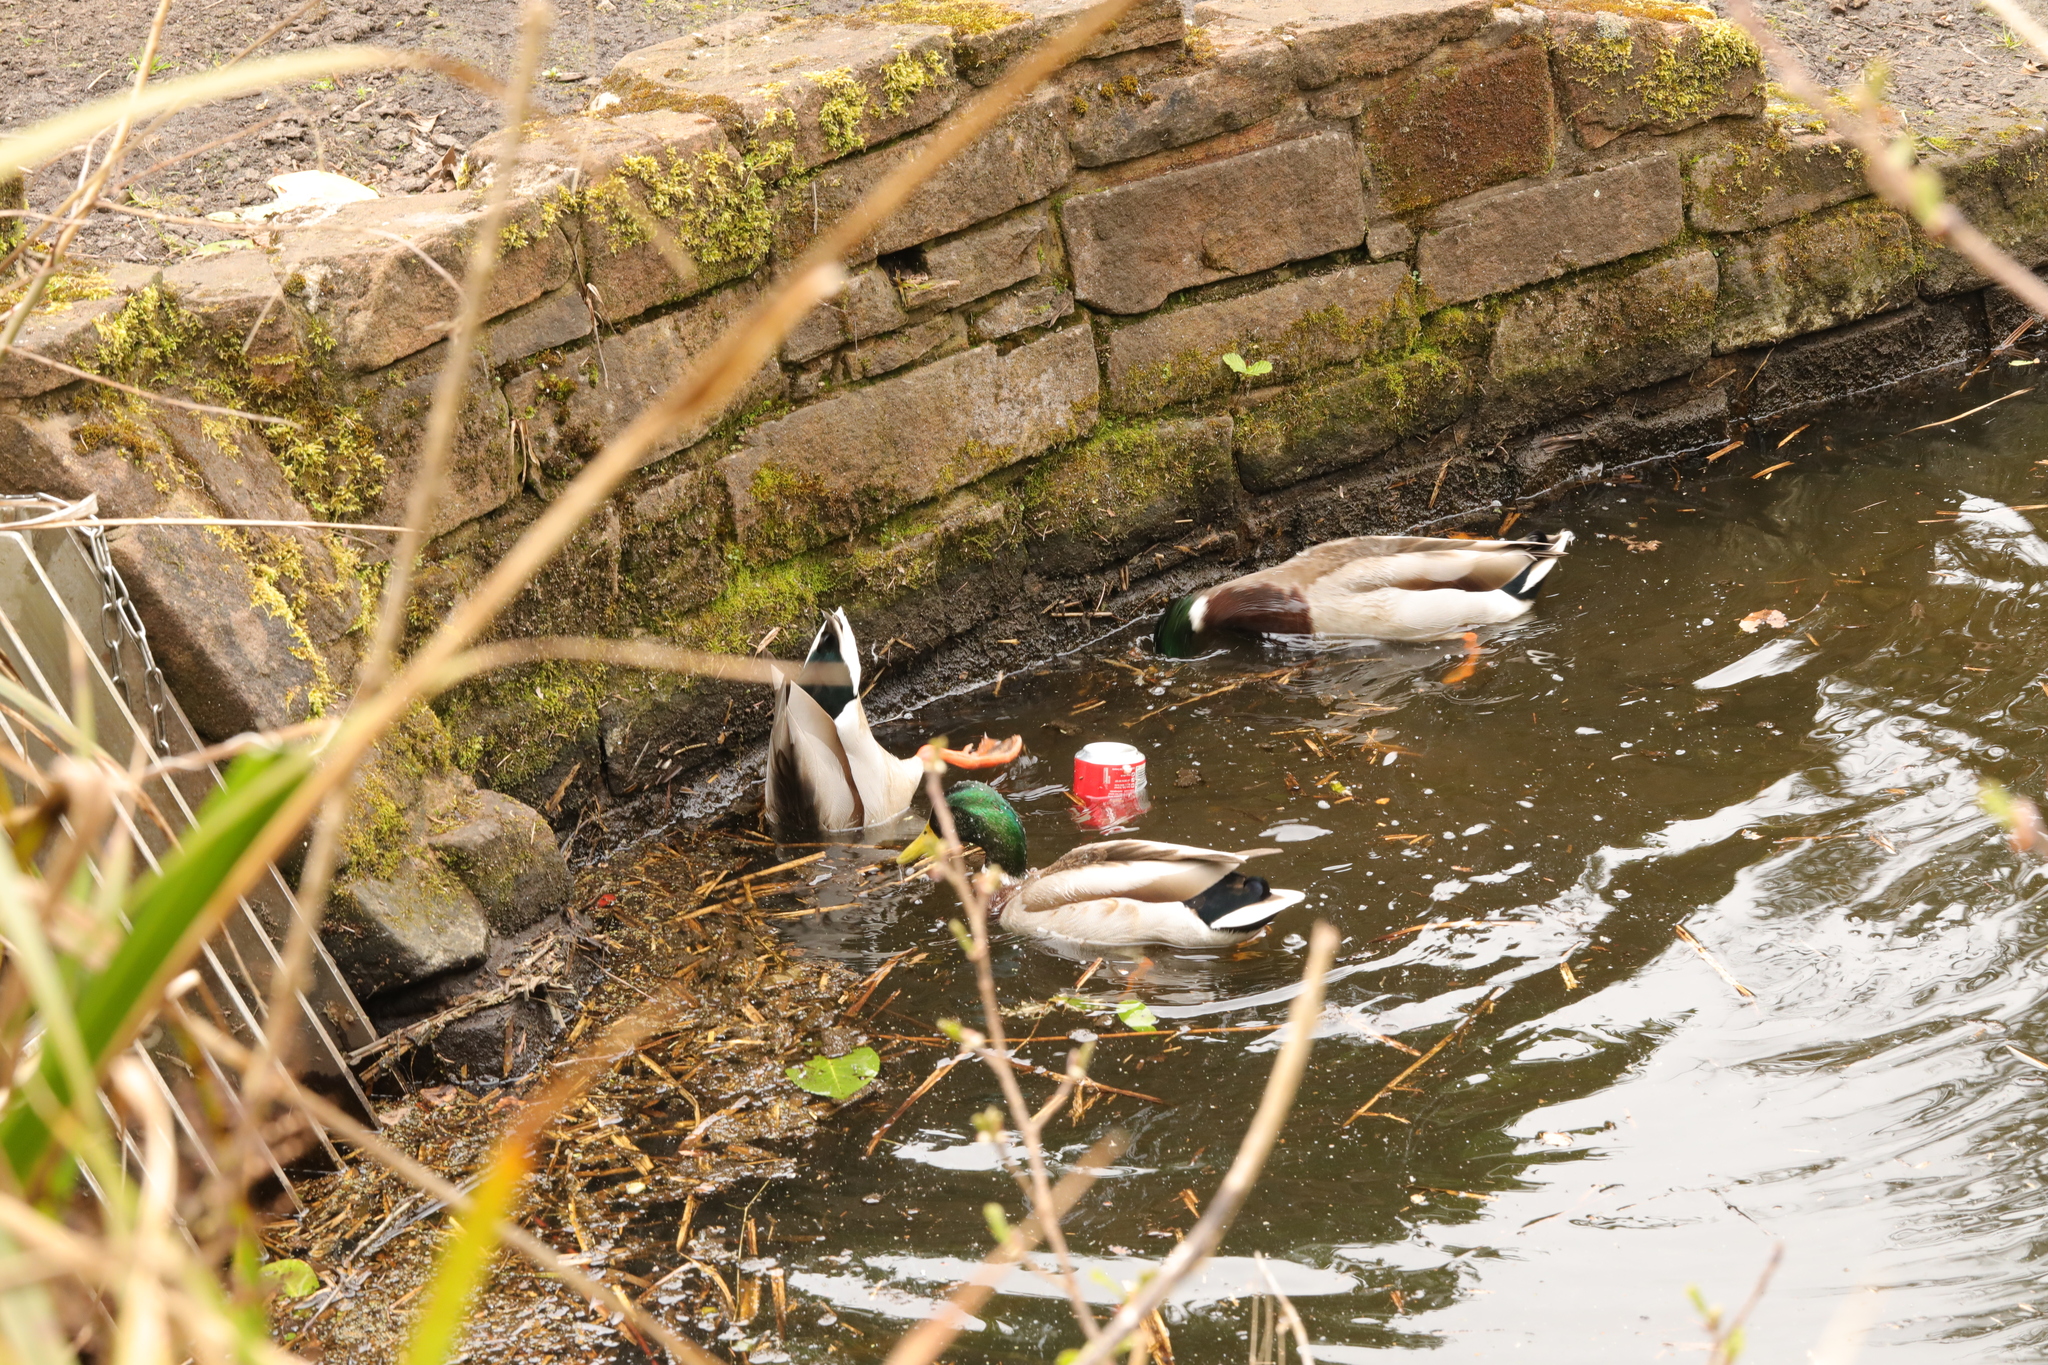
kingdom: Animalia
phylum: Chordata
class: Aves
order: Anseriformes
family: Anatidae
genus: Anas
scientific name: Anas platyrhynchos
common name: Mallard
